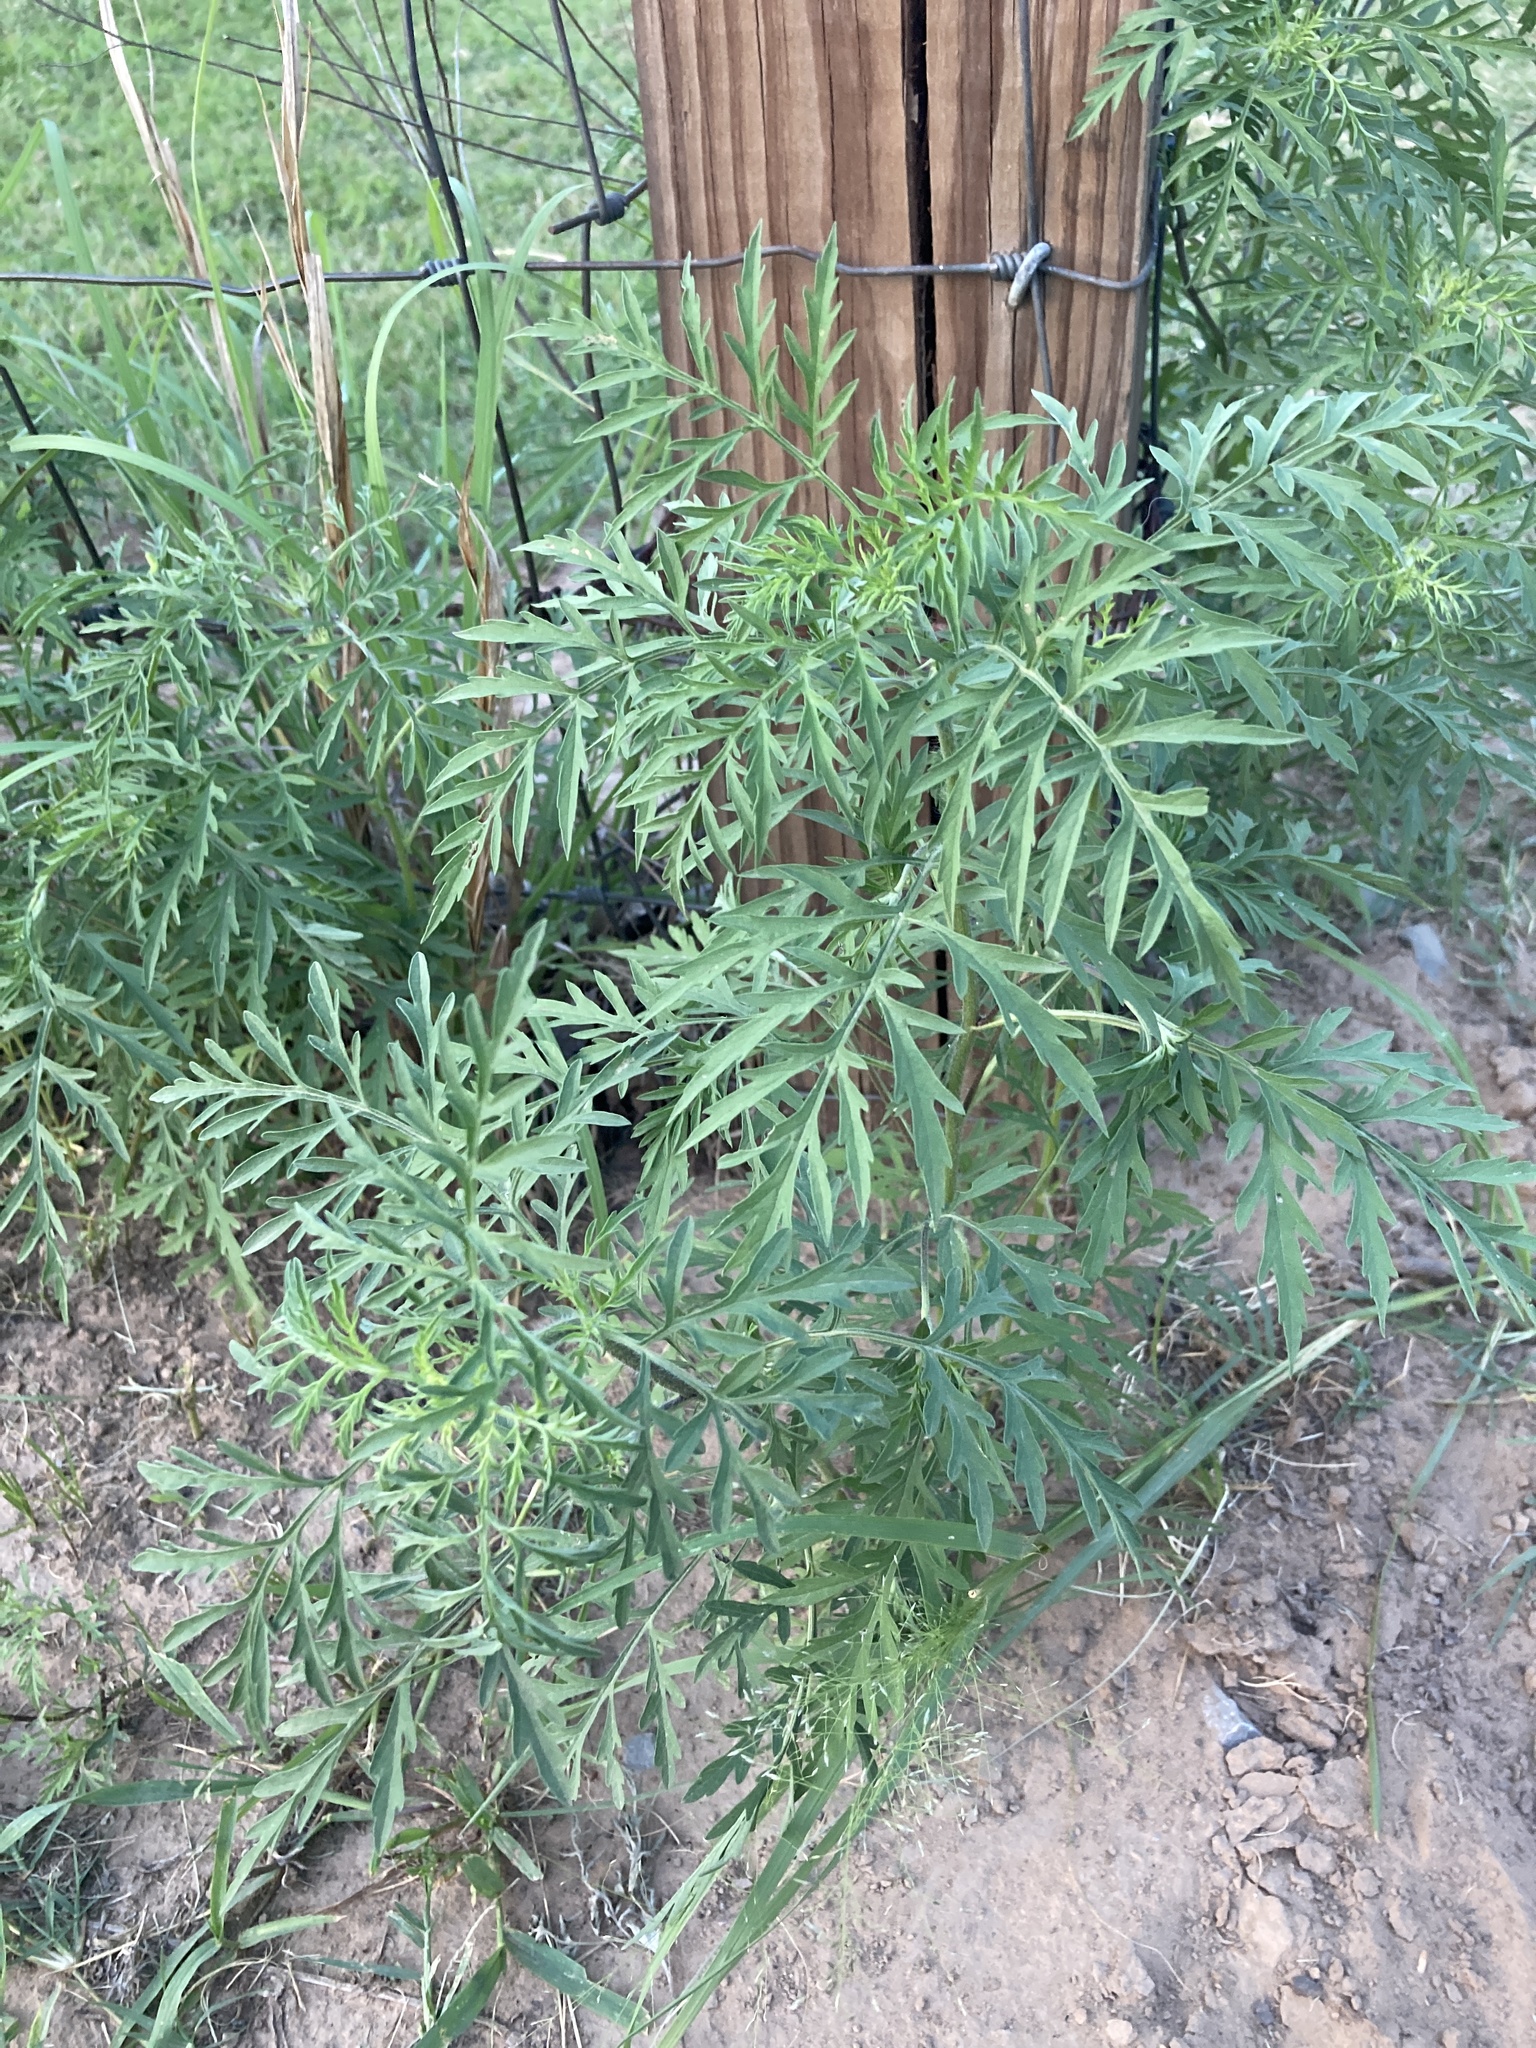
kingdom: Plantae
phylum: Tracheophyta
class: Magnoliopsida
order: Asterales
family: Asteraceae
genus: Ambrosia
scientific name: Ambrosia artemisiifolia
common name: Annual ragweed
